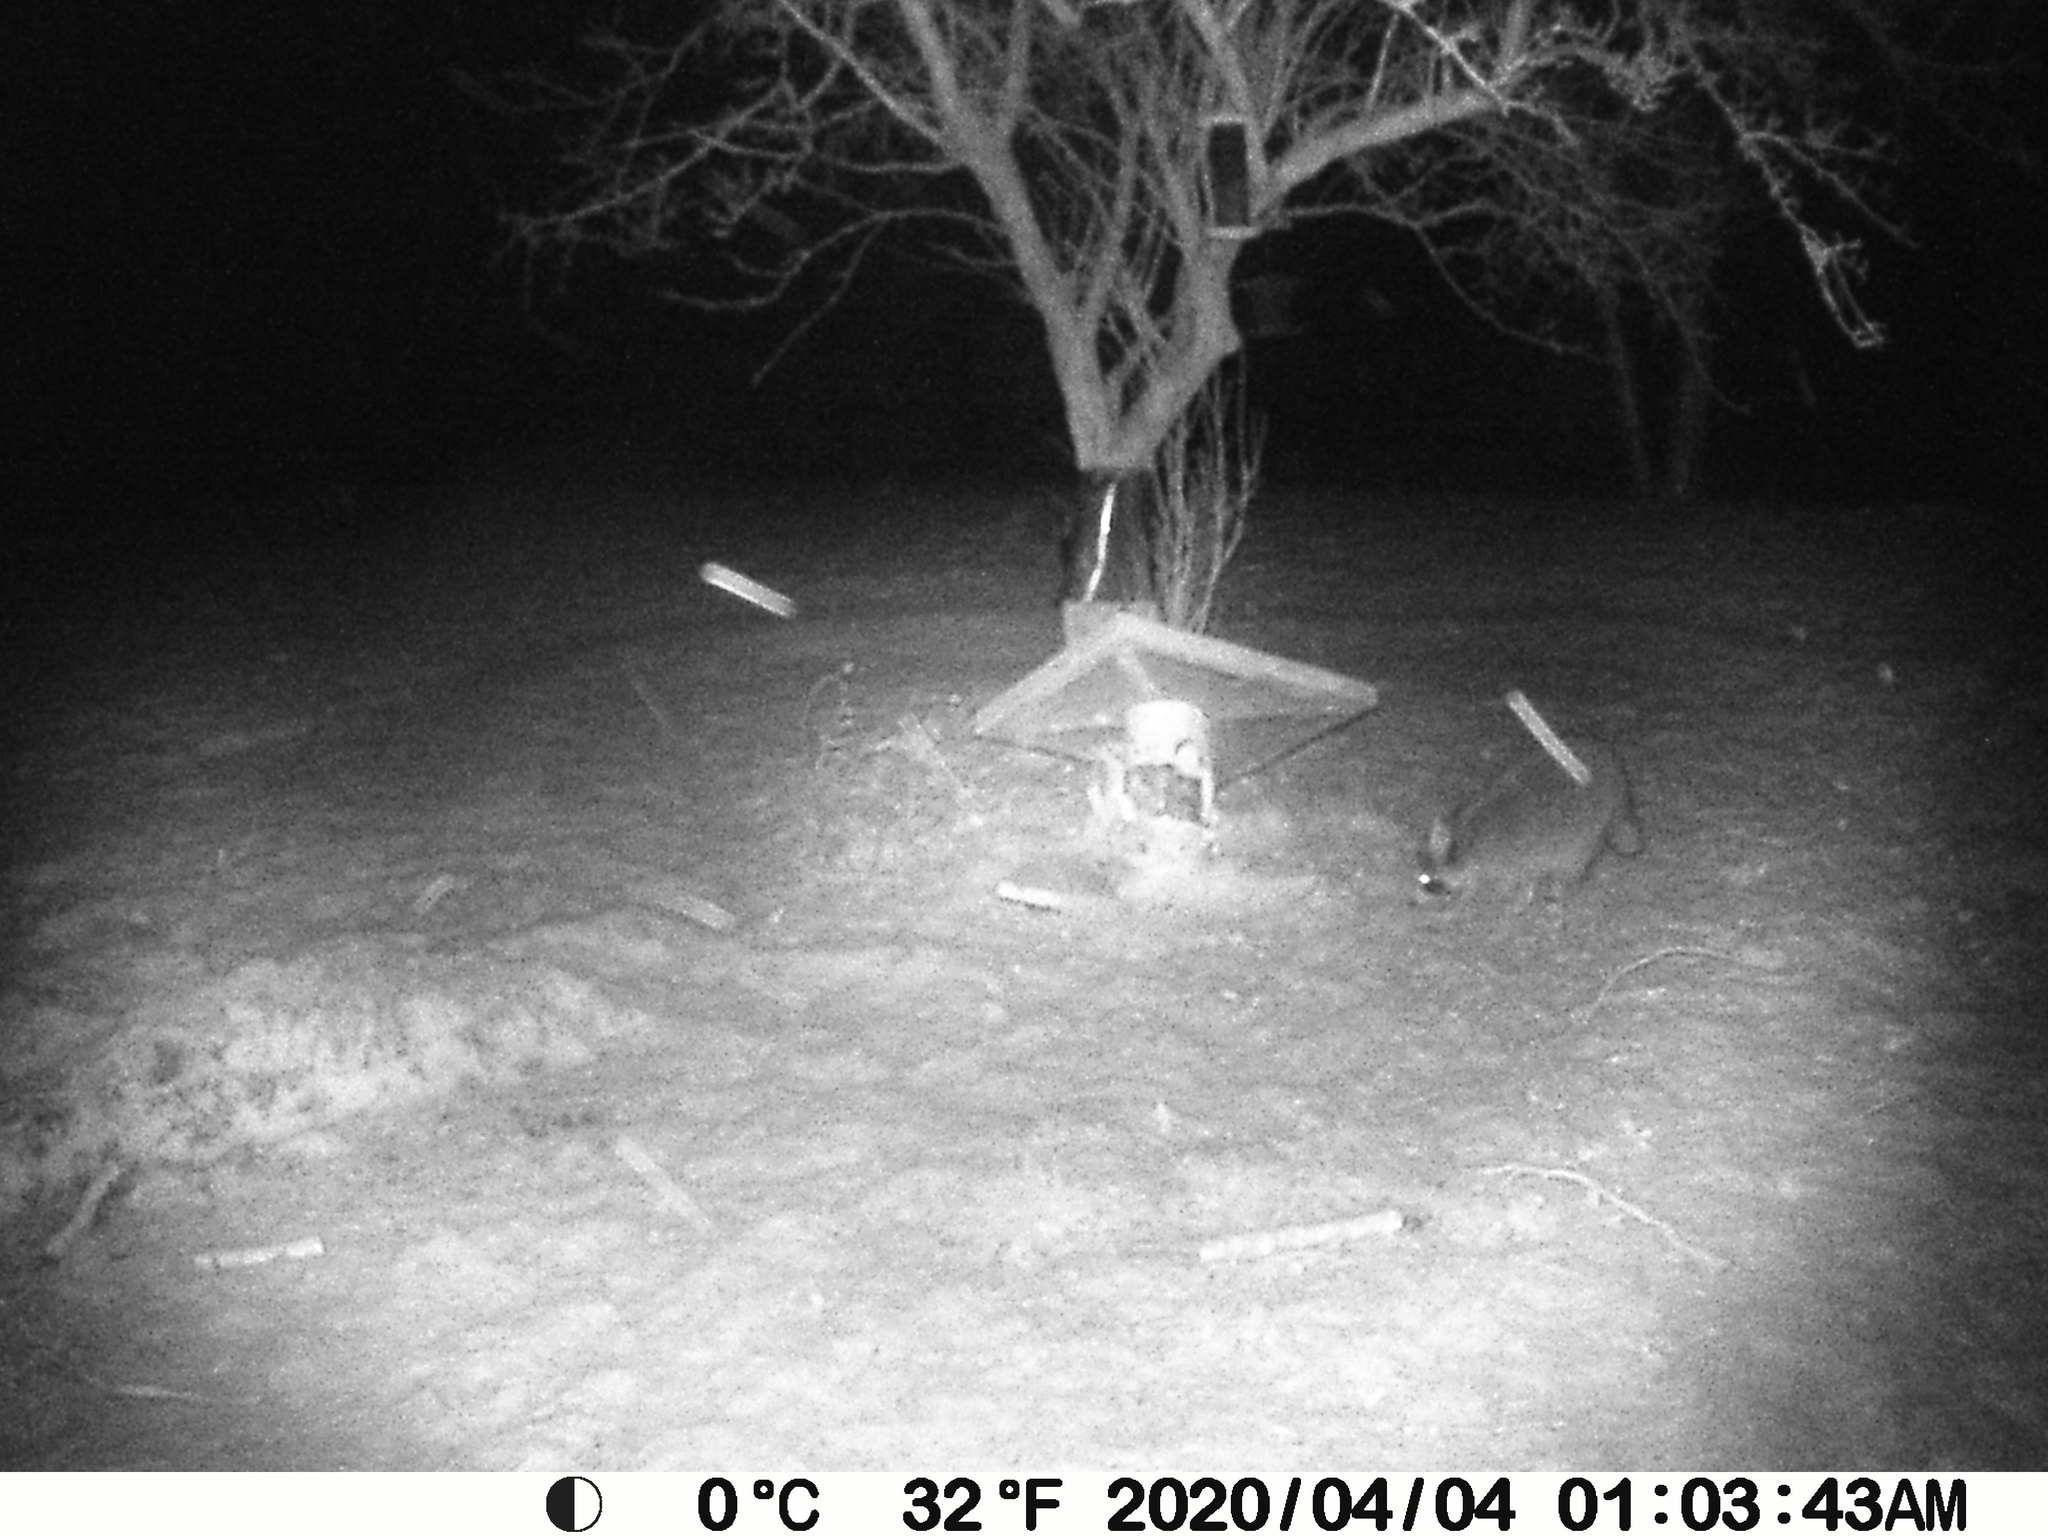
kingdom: Animalia
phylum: Chordata
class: Mammalia
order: Carnivora
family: Procyonidae
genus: Procyon
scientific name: Procyon lotor
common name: Raccoon
